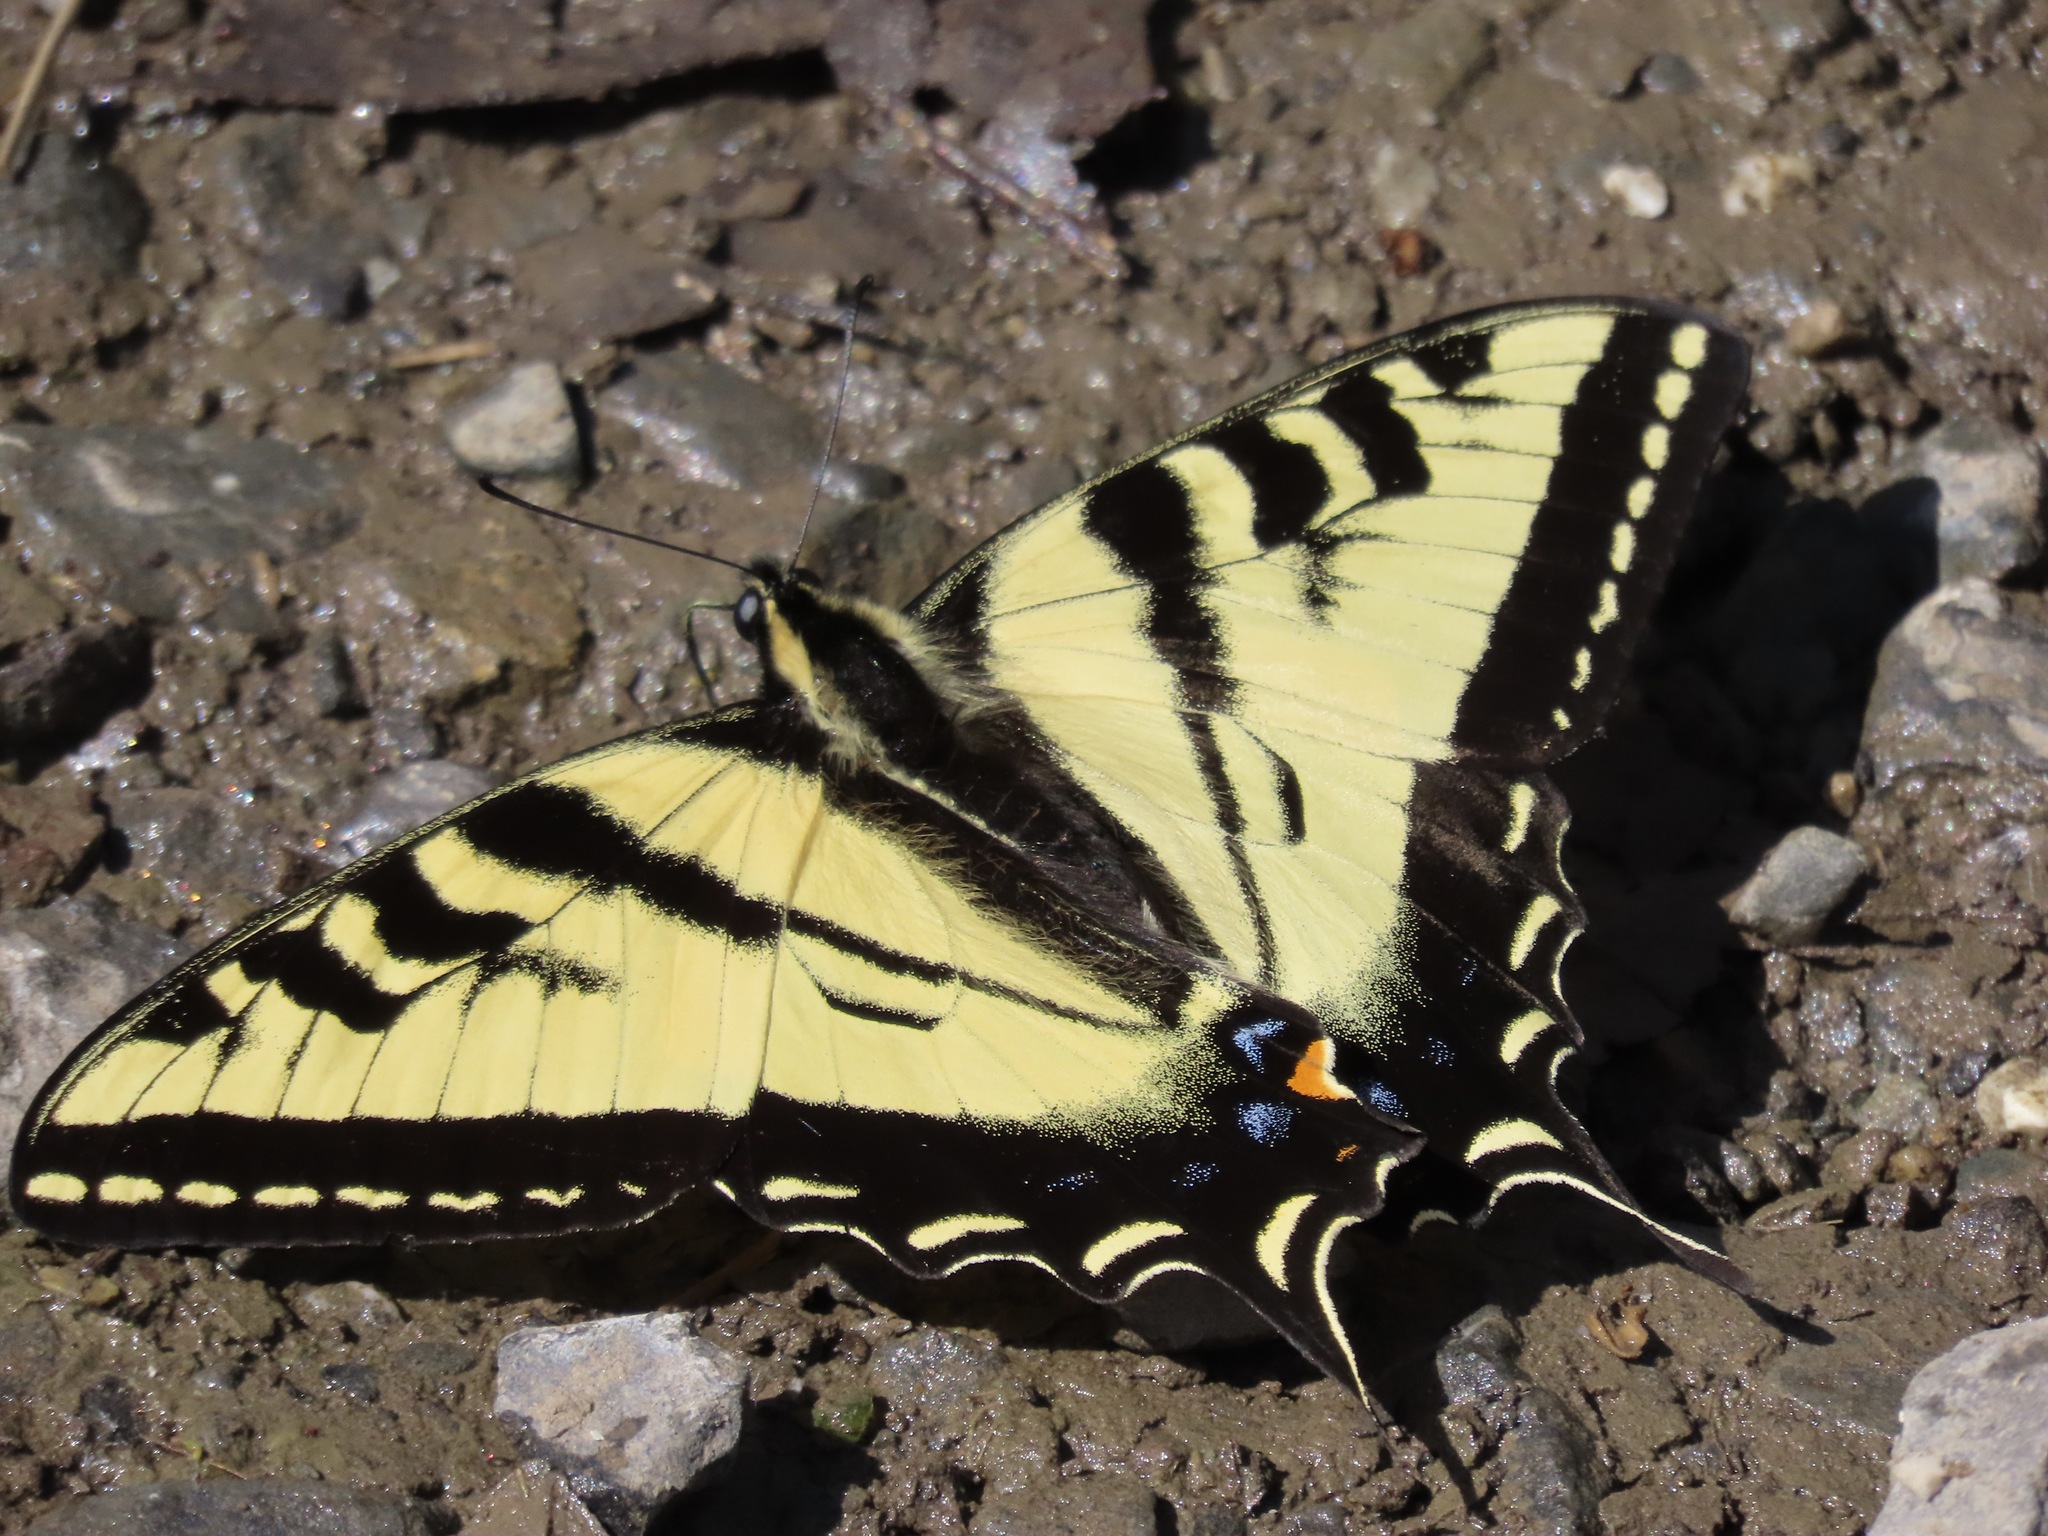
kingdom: Animalia
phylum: Arthropoda
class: Insecta
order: Lepidoptera
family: Papilionidae
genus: Papilio
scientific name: Papilio rutulus
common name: Western tiger swallowtail
